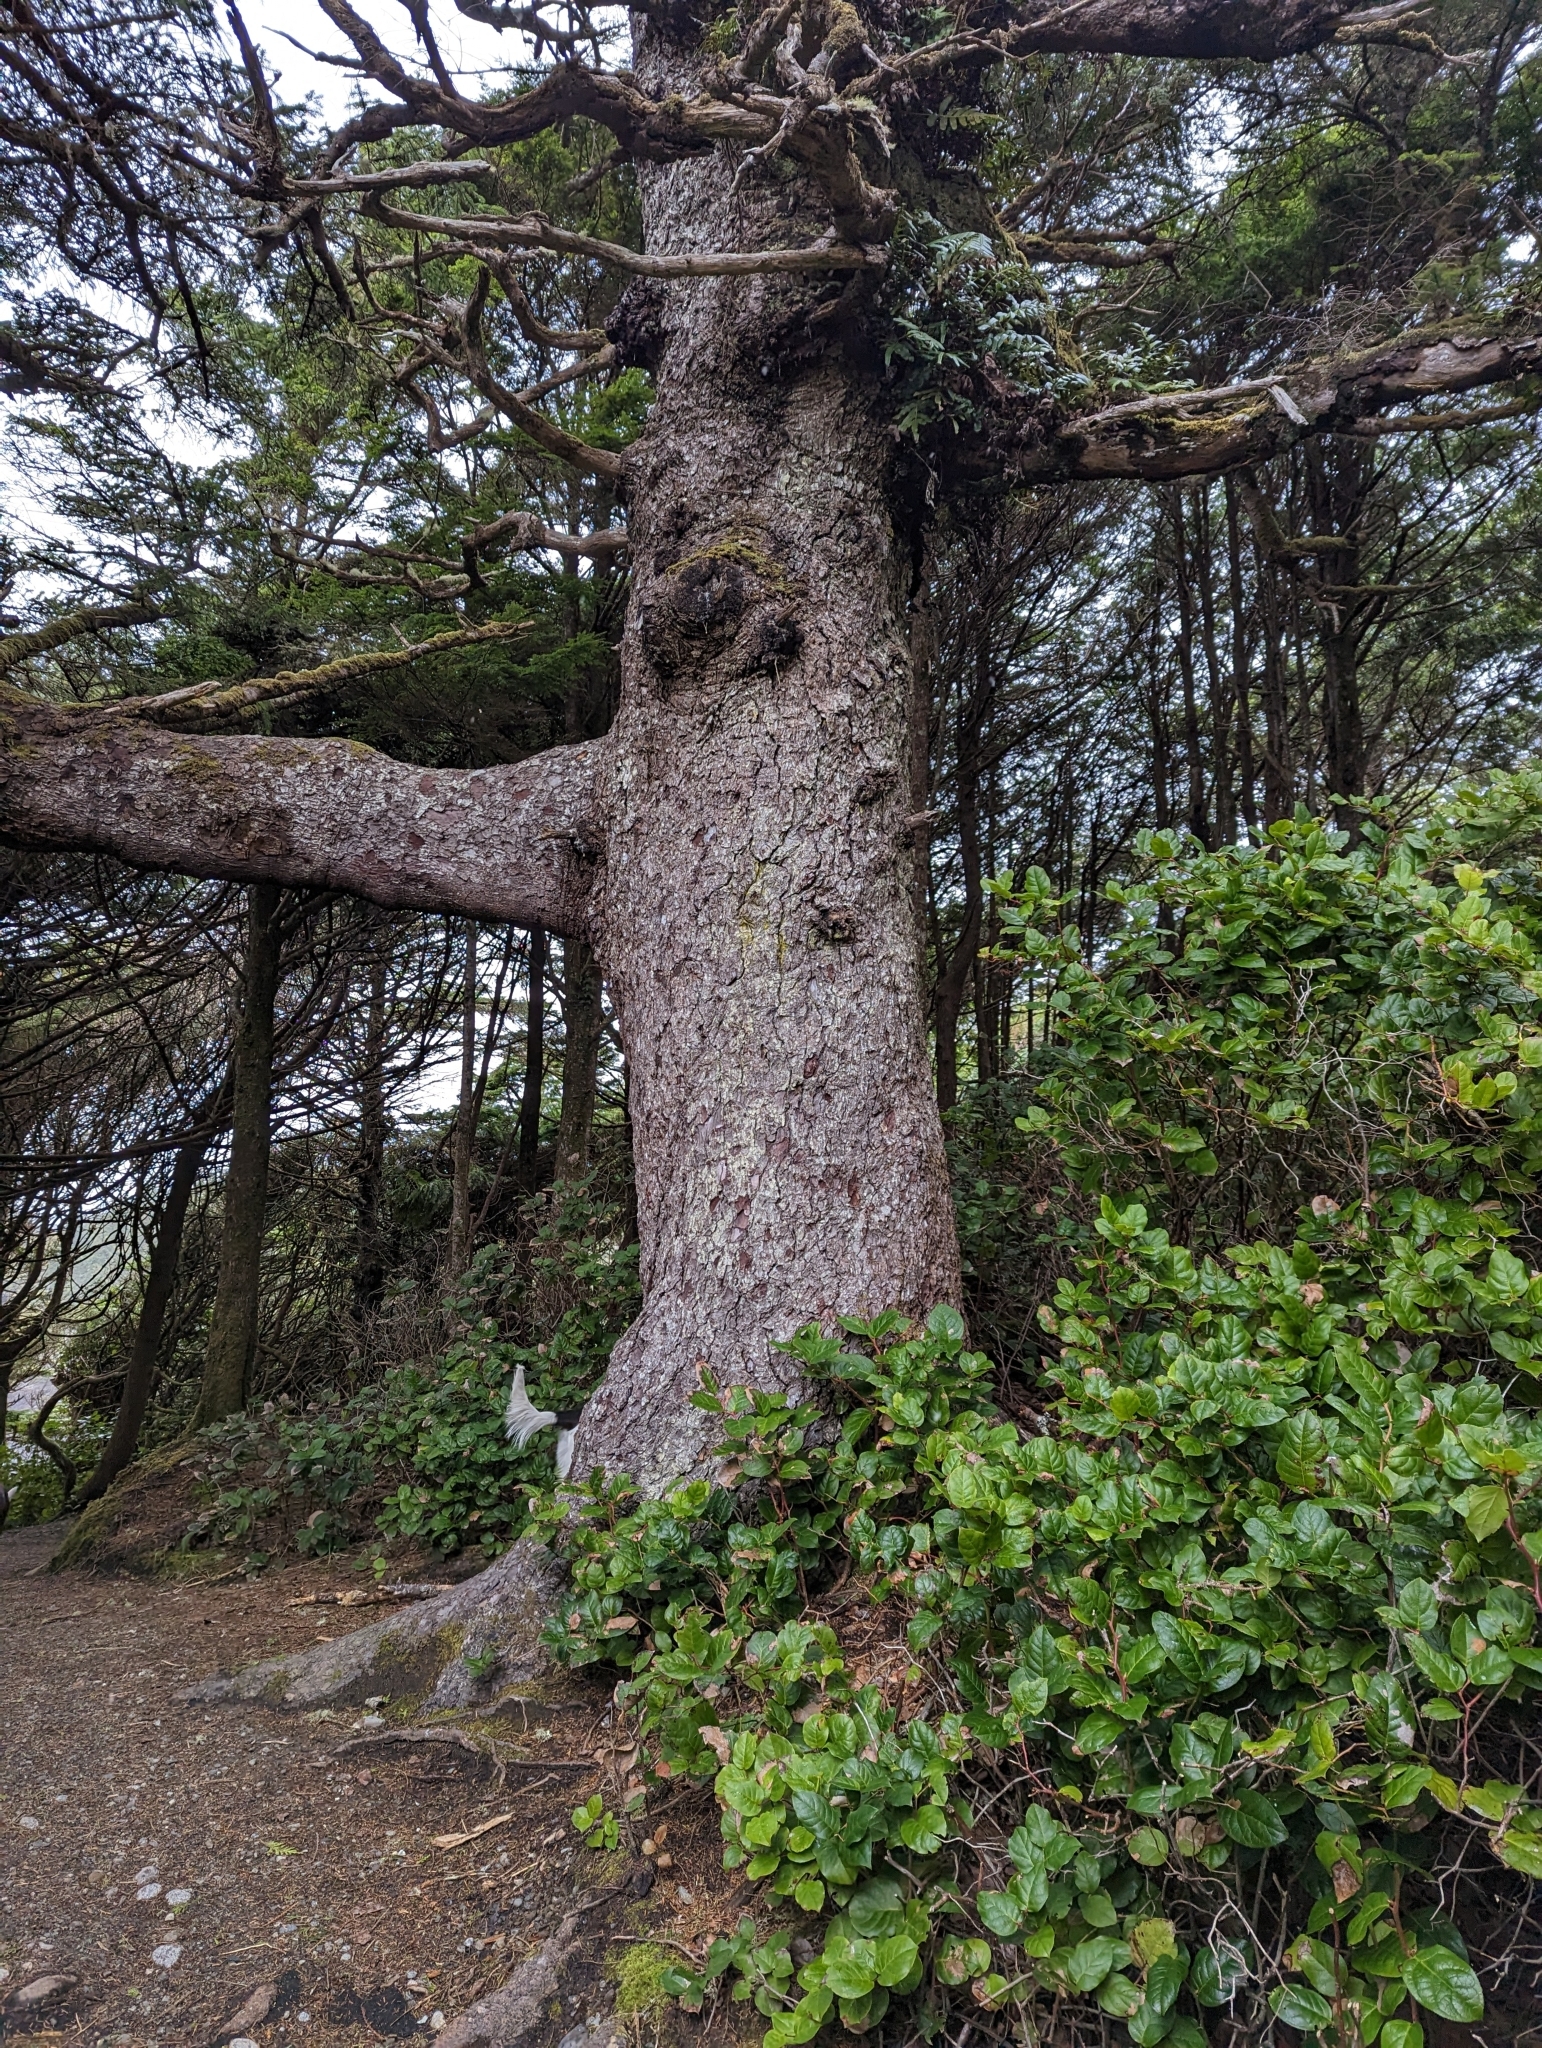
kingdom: Plantae
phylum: Tracheophyta
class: Pinopsida
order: Pinales
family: Pinaceae
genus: Picea
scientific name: Picea sitchensis
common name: Sitka spruce
